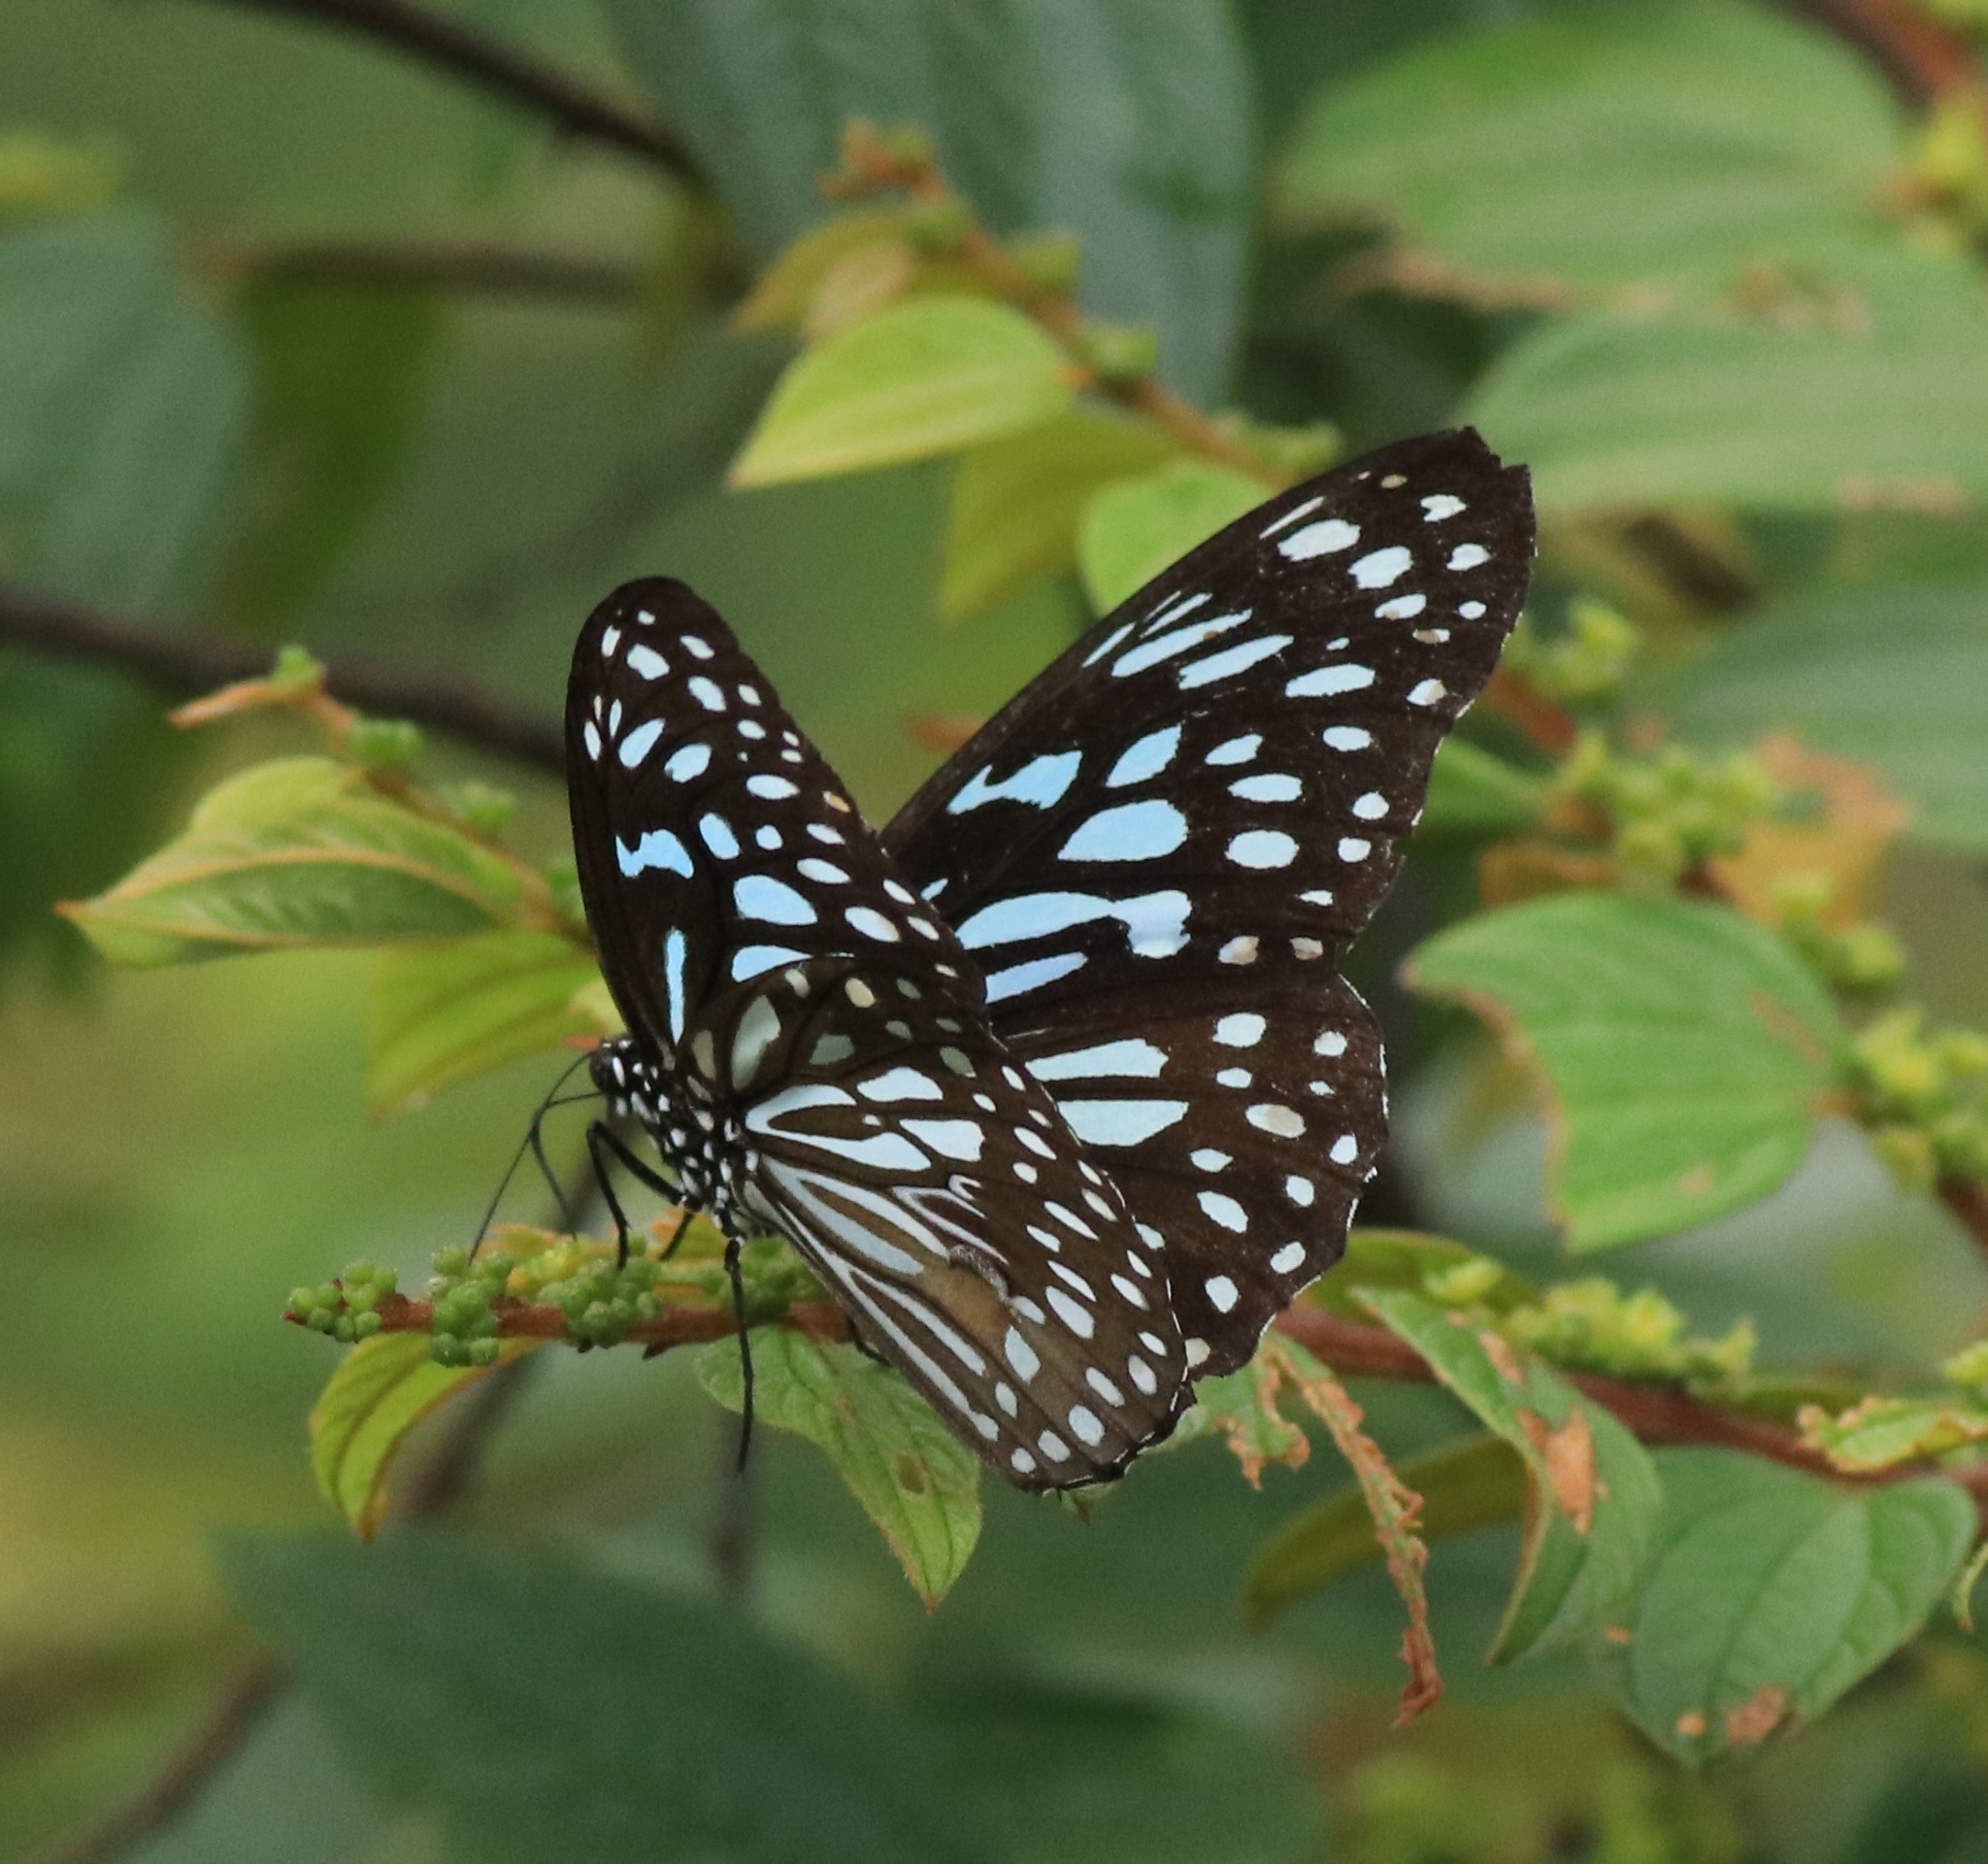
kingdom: Animalia
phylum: Arthropoda
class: Insecta
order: Lepidoptera
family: Nymphalidae
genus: Tirumala
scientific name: Tirumala septentrionis
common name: Dark blue tiger butterfly
